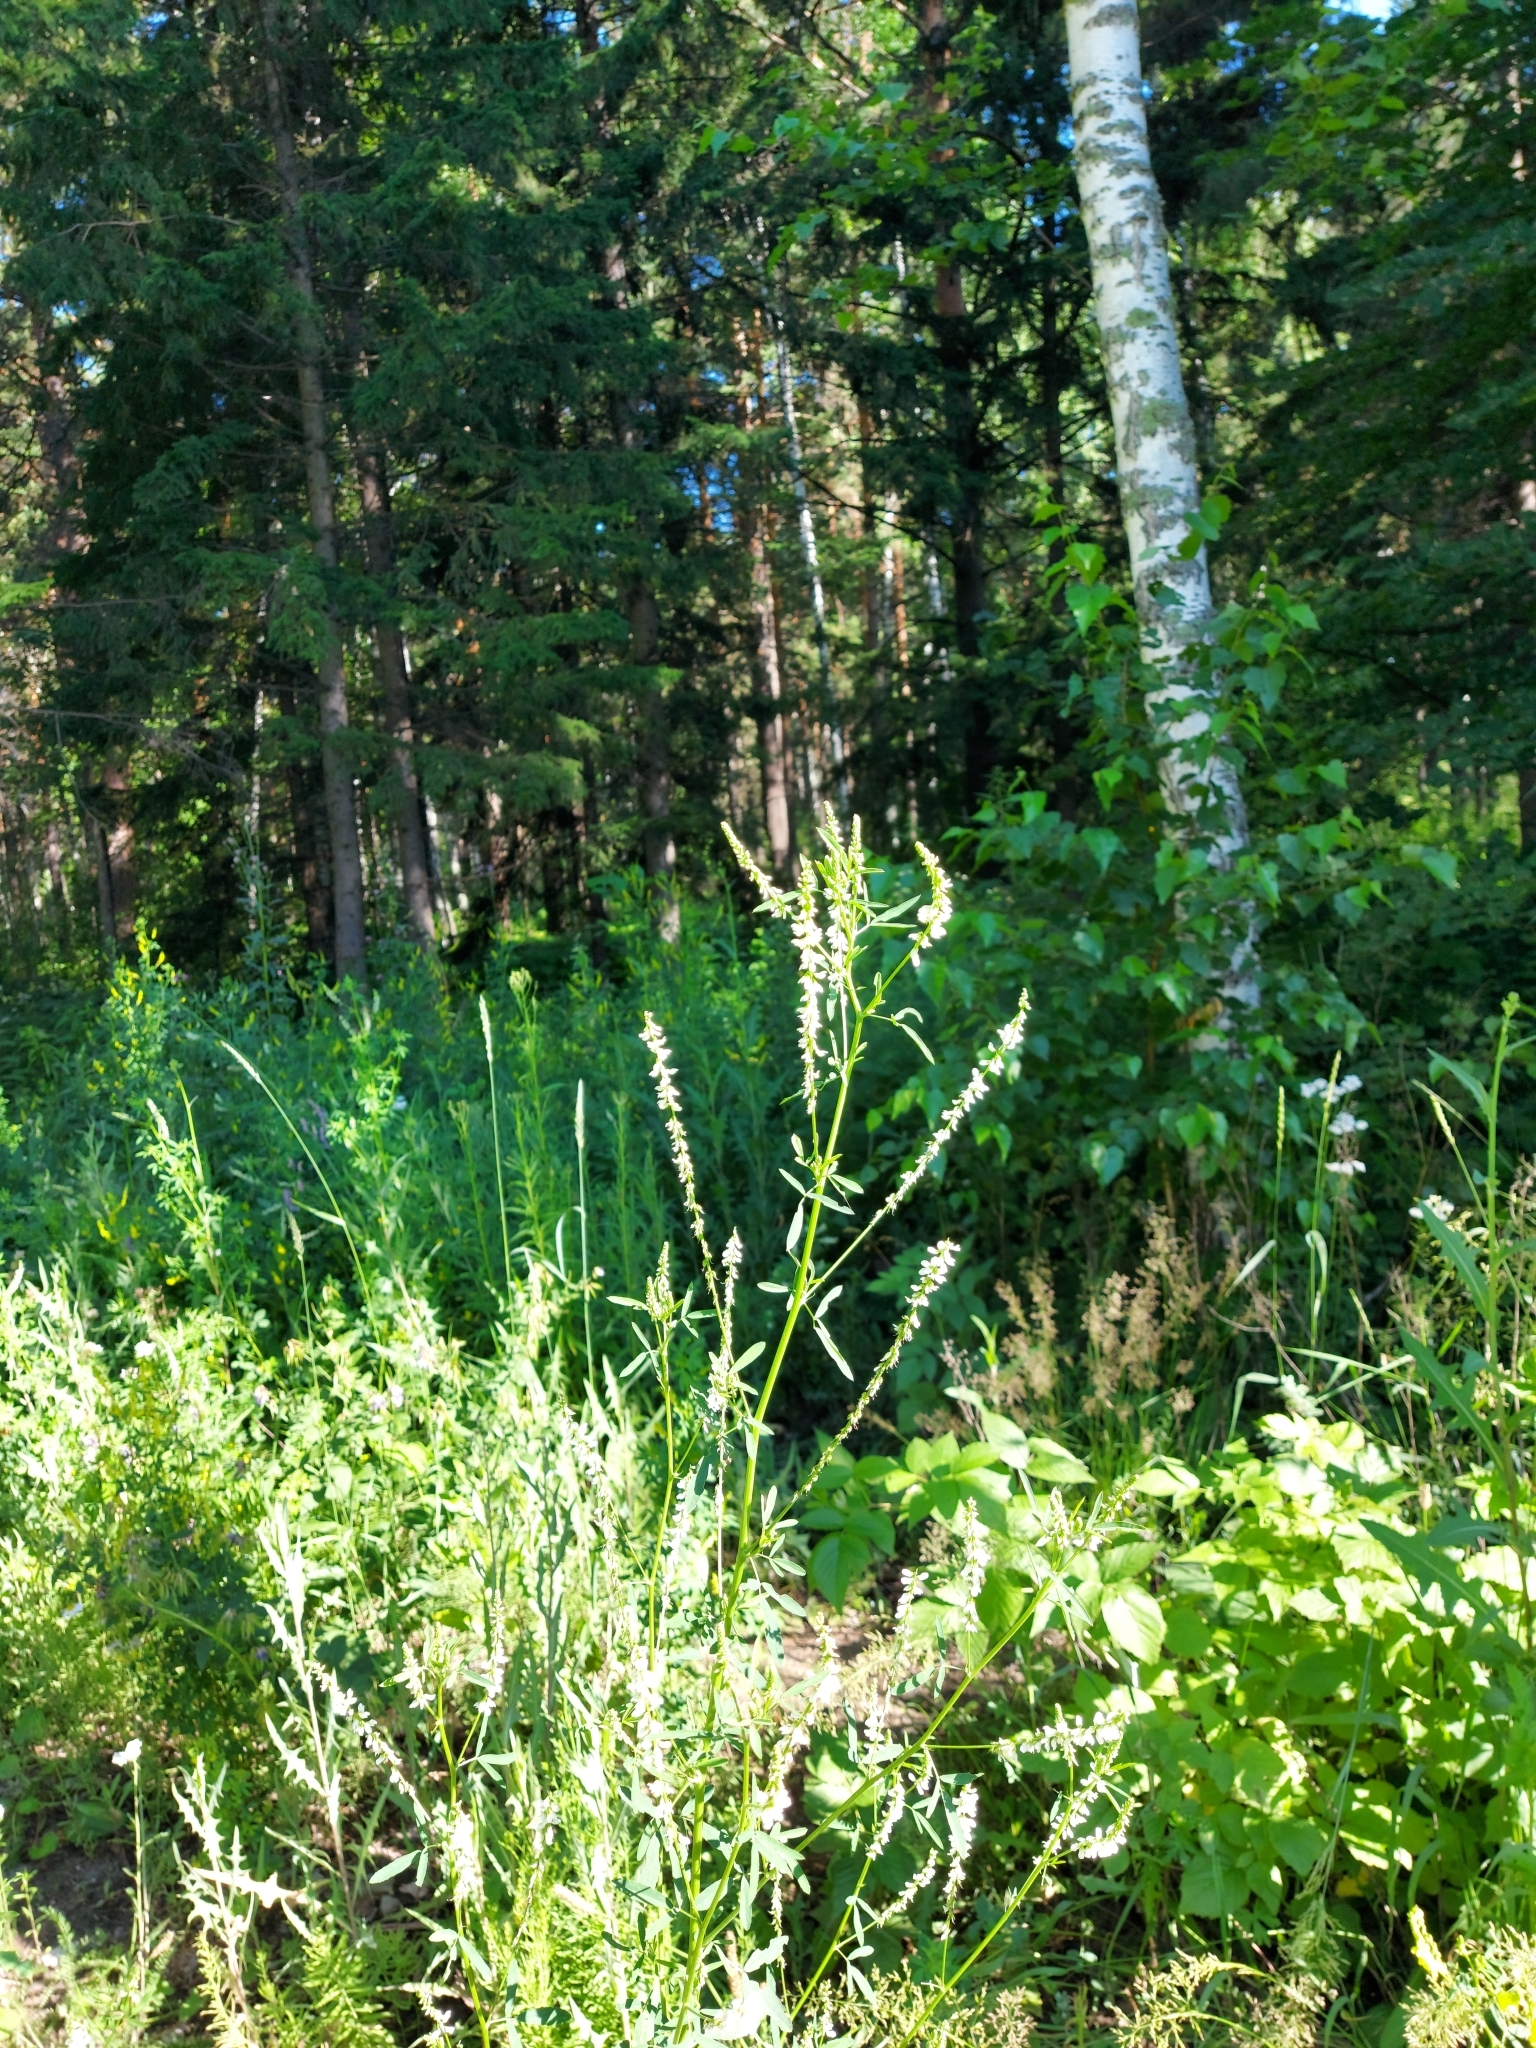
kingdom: Plantae
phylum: Tracheophyta
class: Magnoliopsida
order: Fabales
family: Fabaceae
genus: Melilotus
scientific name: Melilotus albus
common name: White melilot
